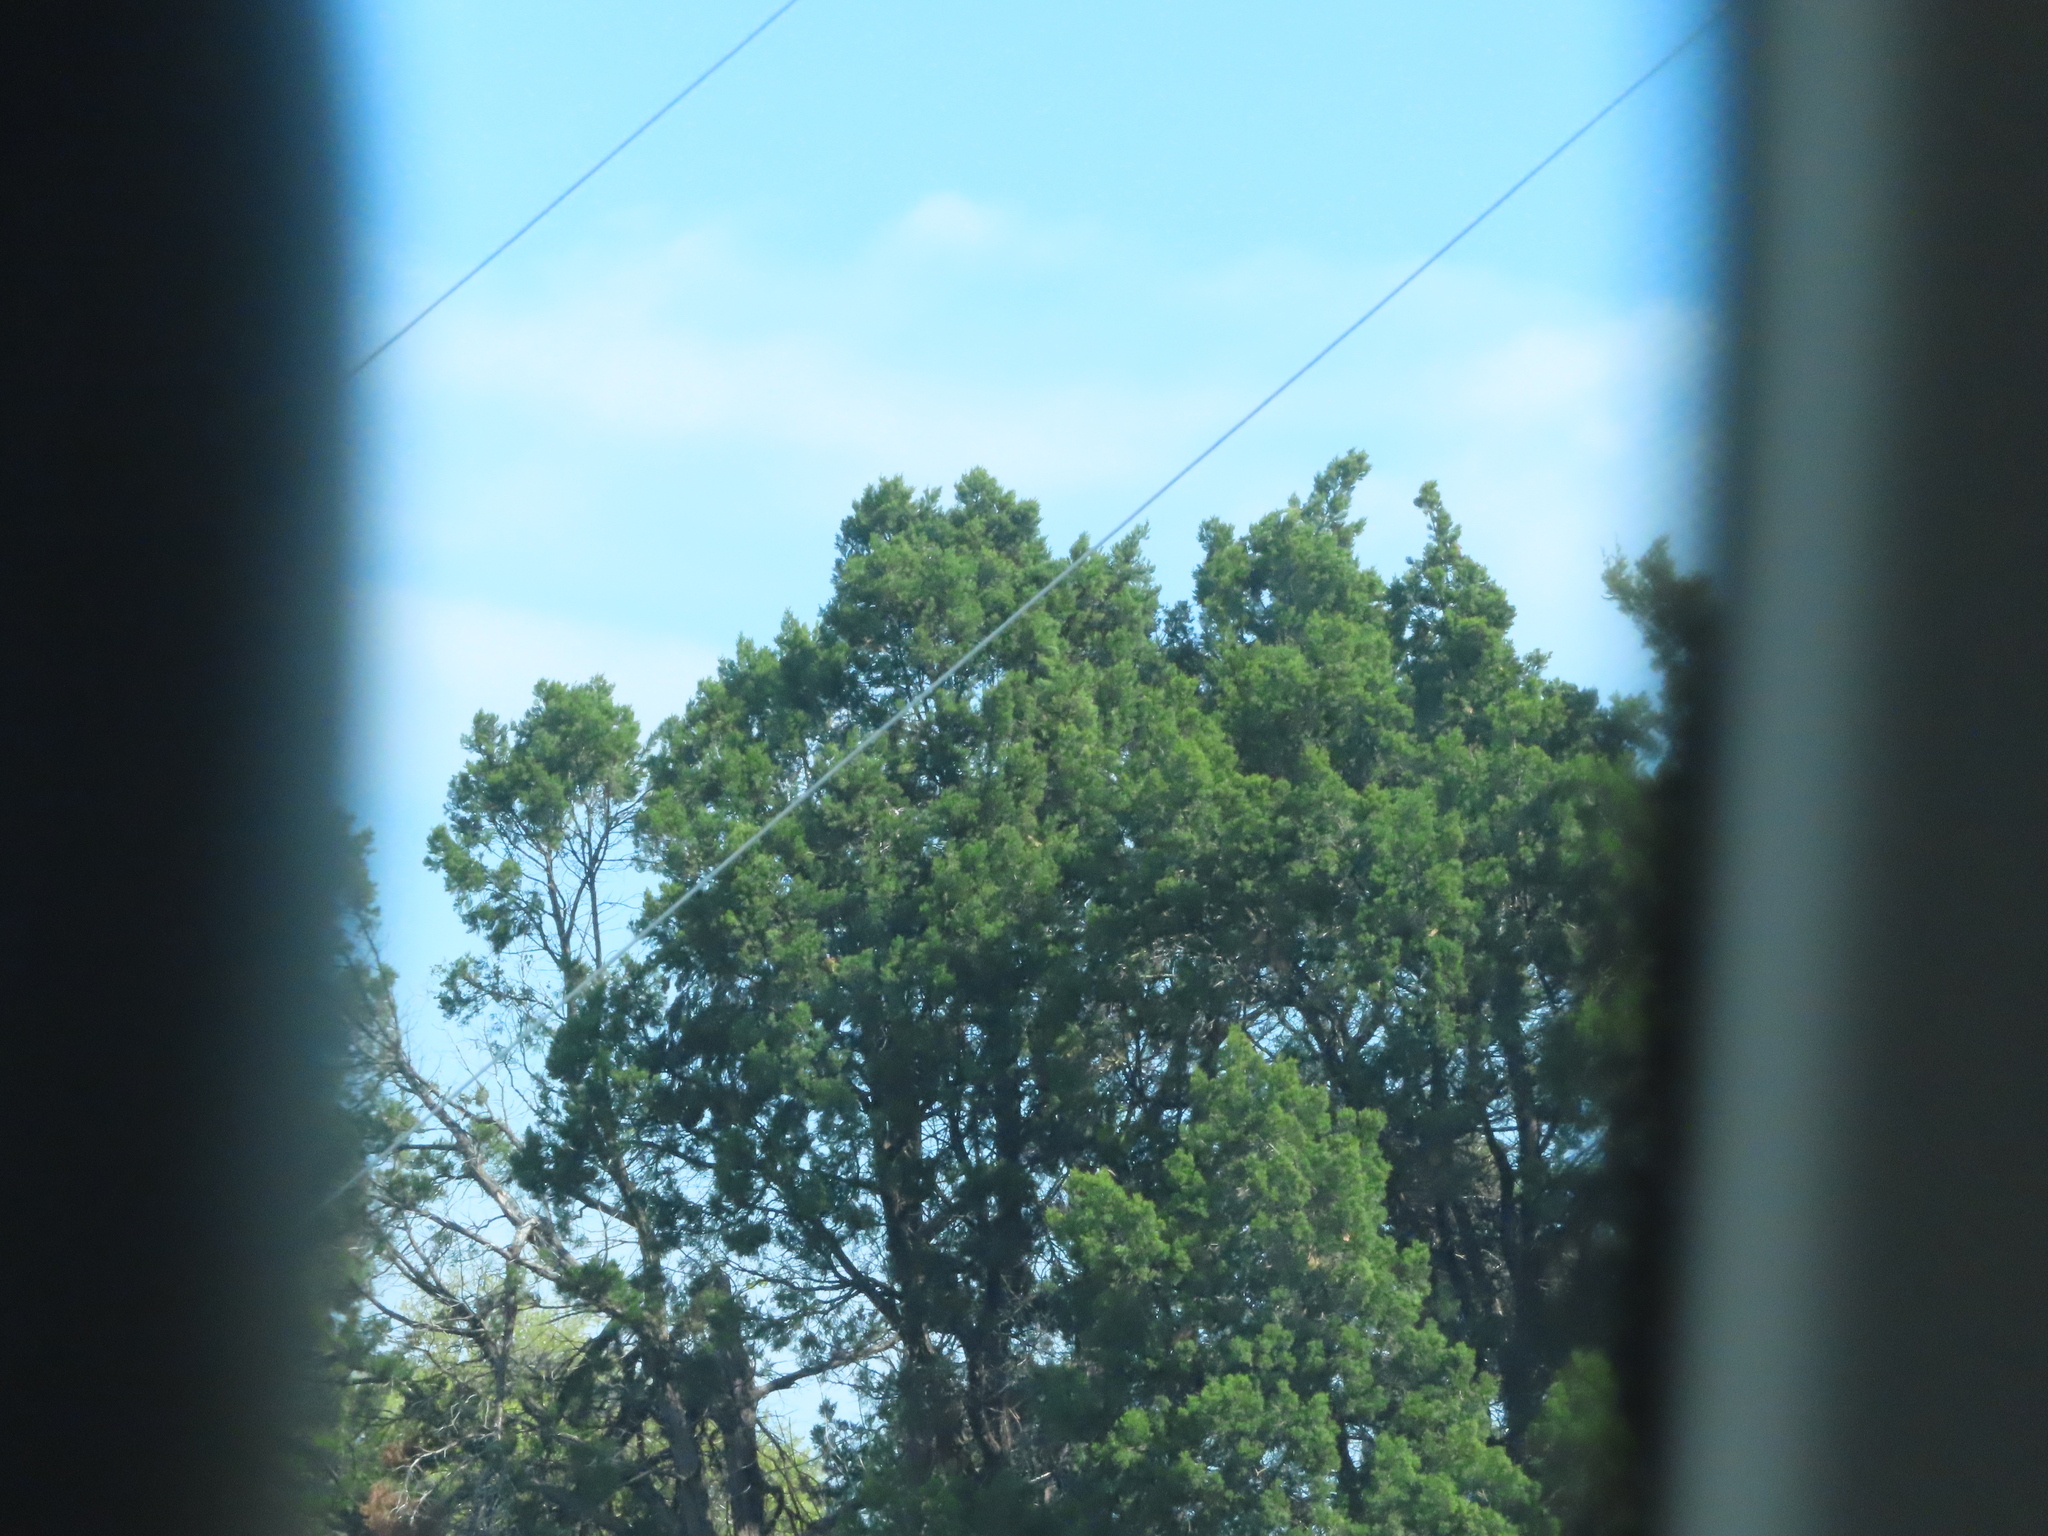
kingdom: Plantae
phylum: Tracheophyta
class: Pinopsida
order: Pinales
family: Cupressaceae
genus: Juniperus
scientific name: Juniperus ashei
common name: Mexican juniper
